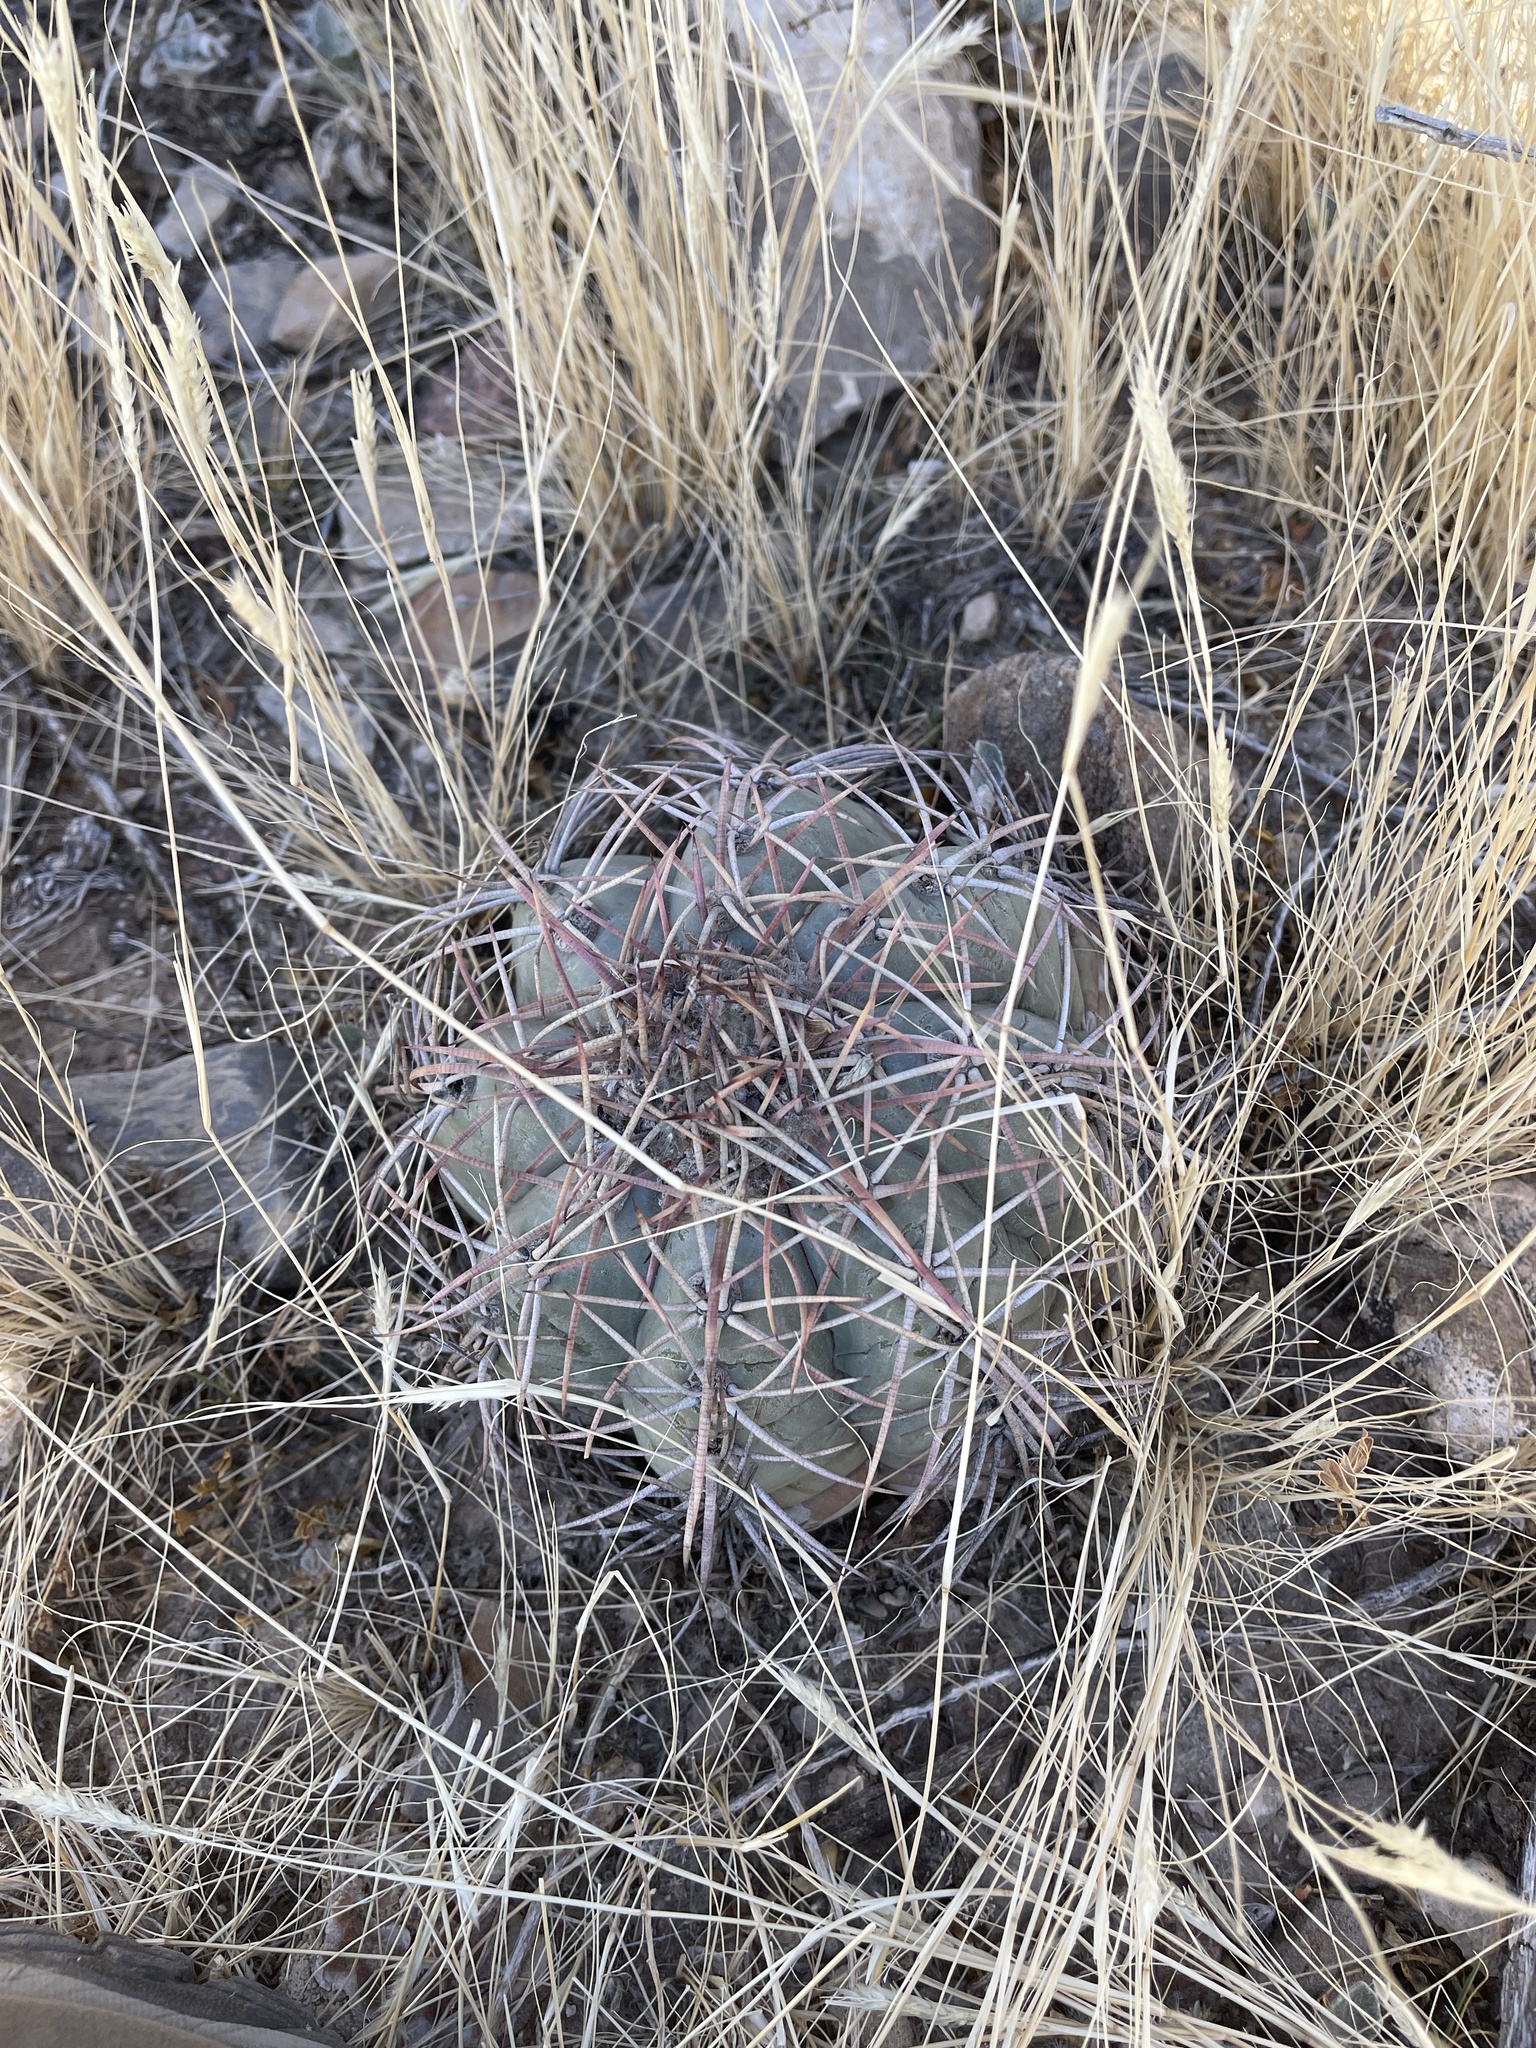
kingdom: Plantae
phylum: Tracheophyta
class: Magnoliopsida
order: Caryophyllales
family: Cactaceae
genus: Echinocactus
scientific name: Echinocactus horizonthalonius
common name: Devilshead
